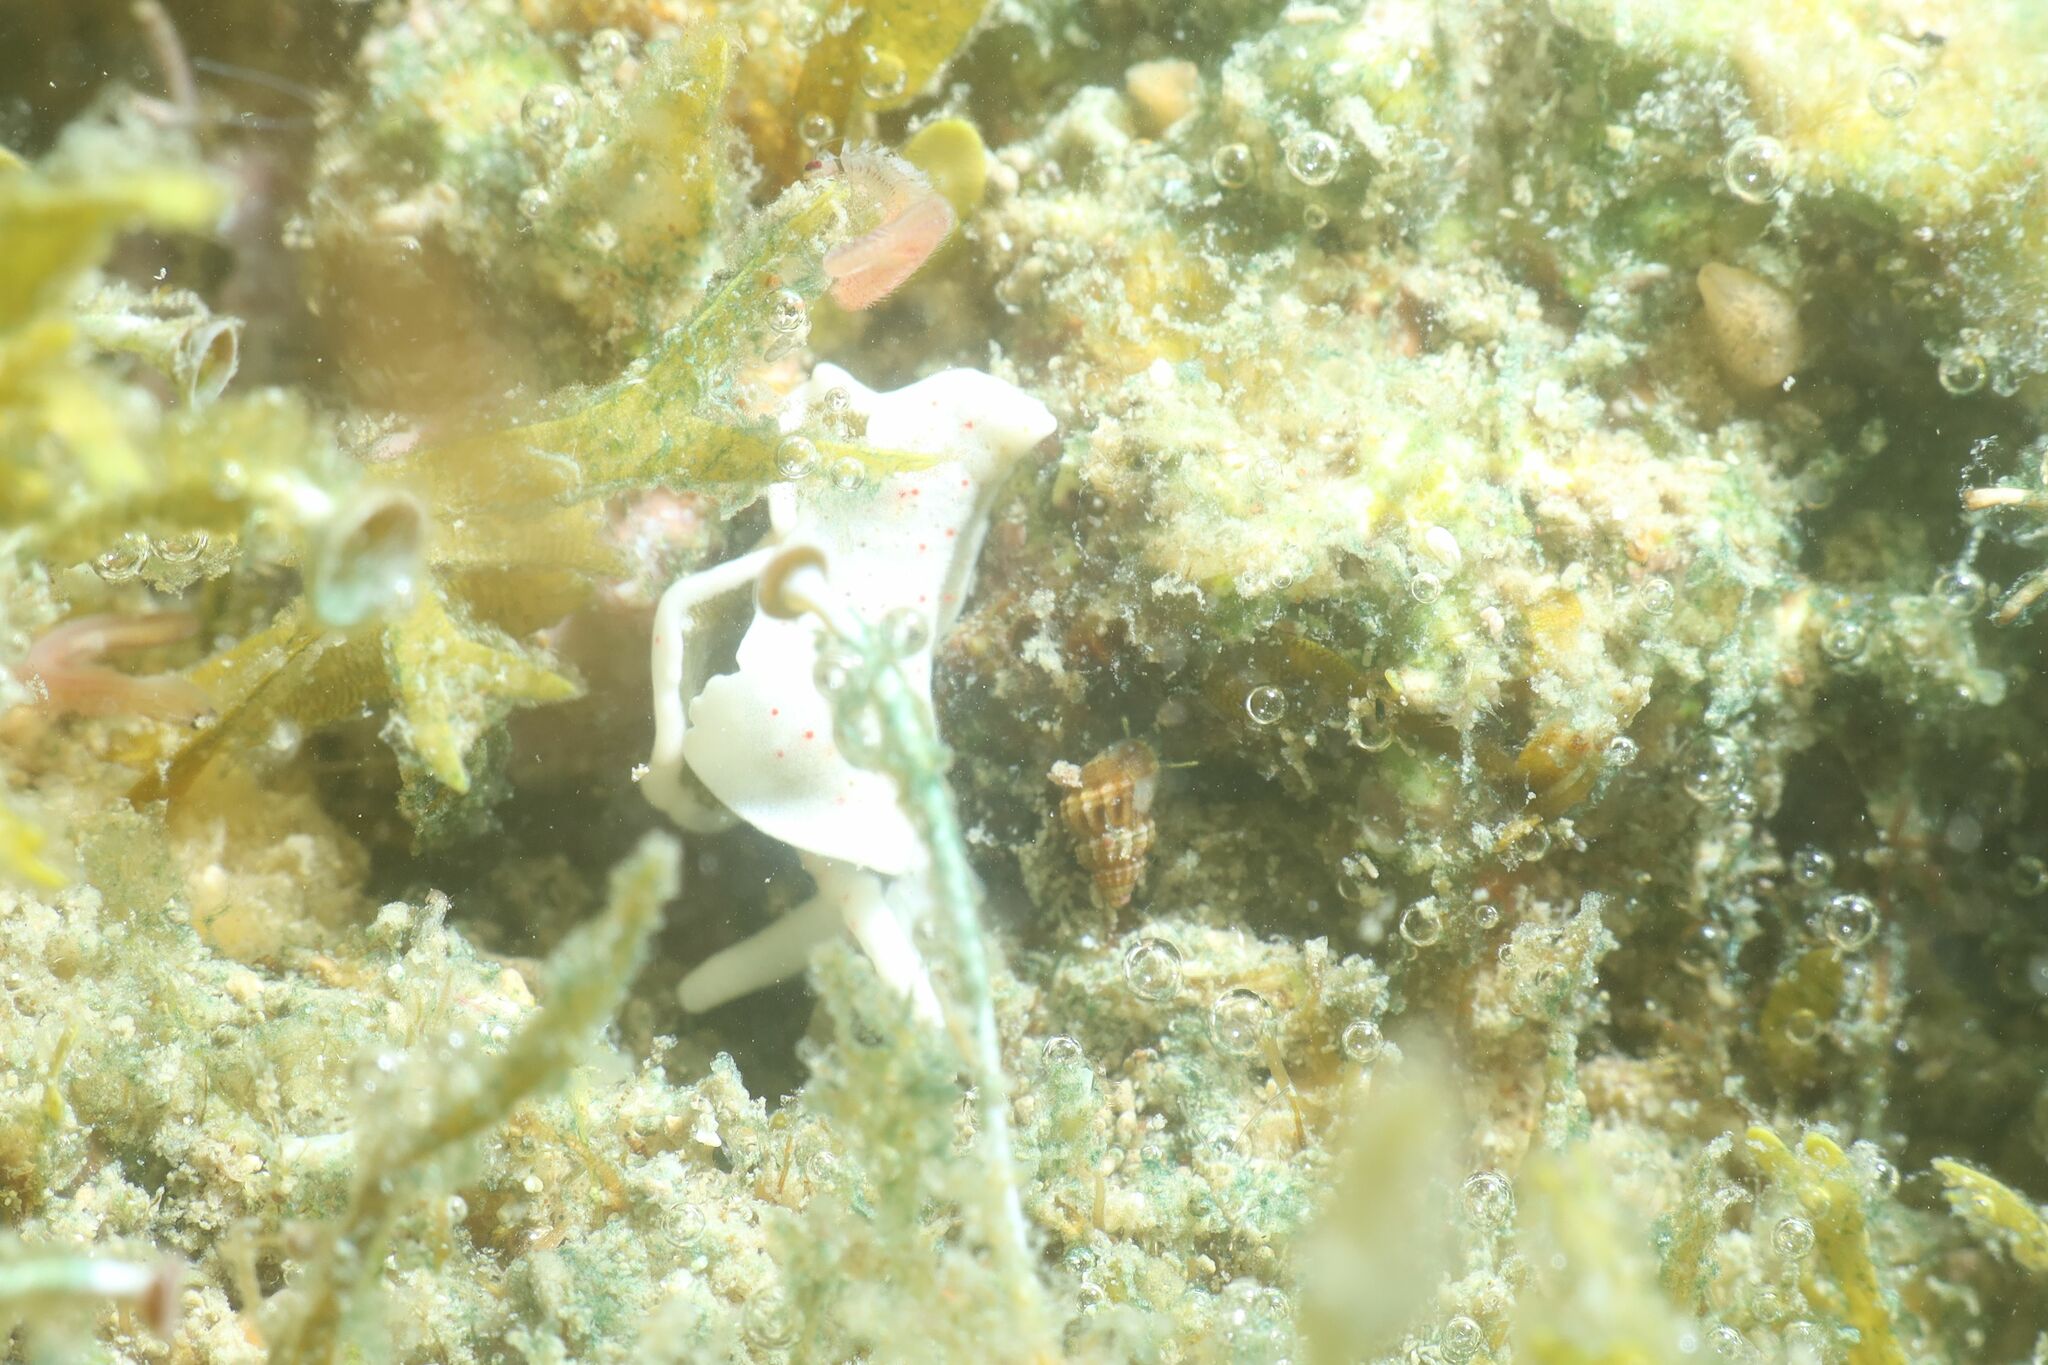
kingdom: Animalia
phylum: Mollusca
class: Gastropoda
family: Plakobranchidae
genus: Elysia
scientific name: Elysia timida
